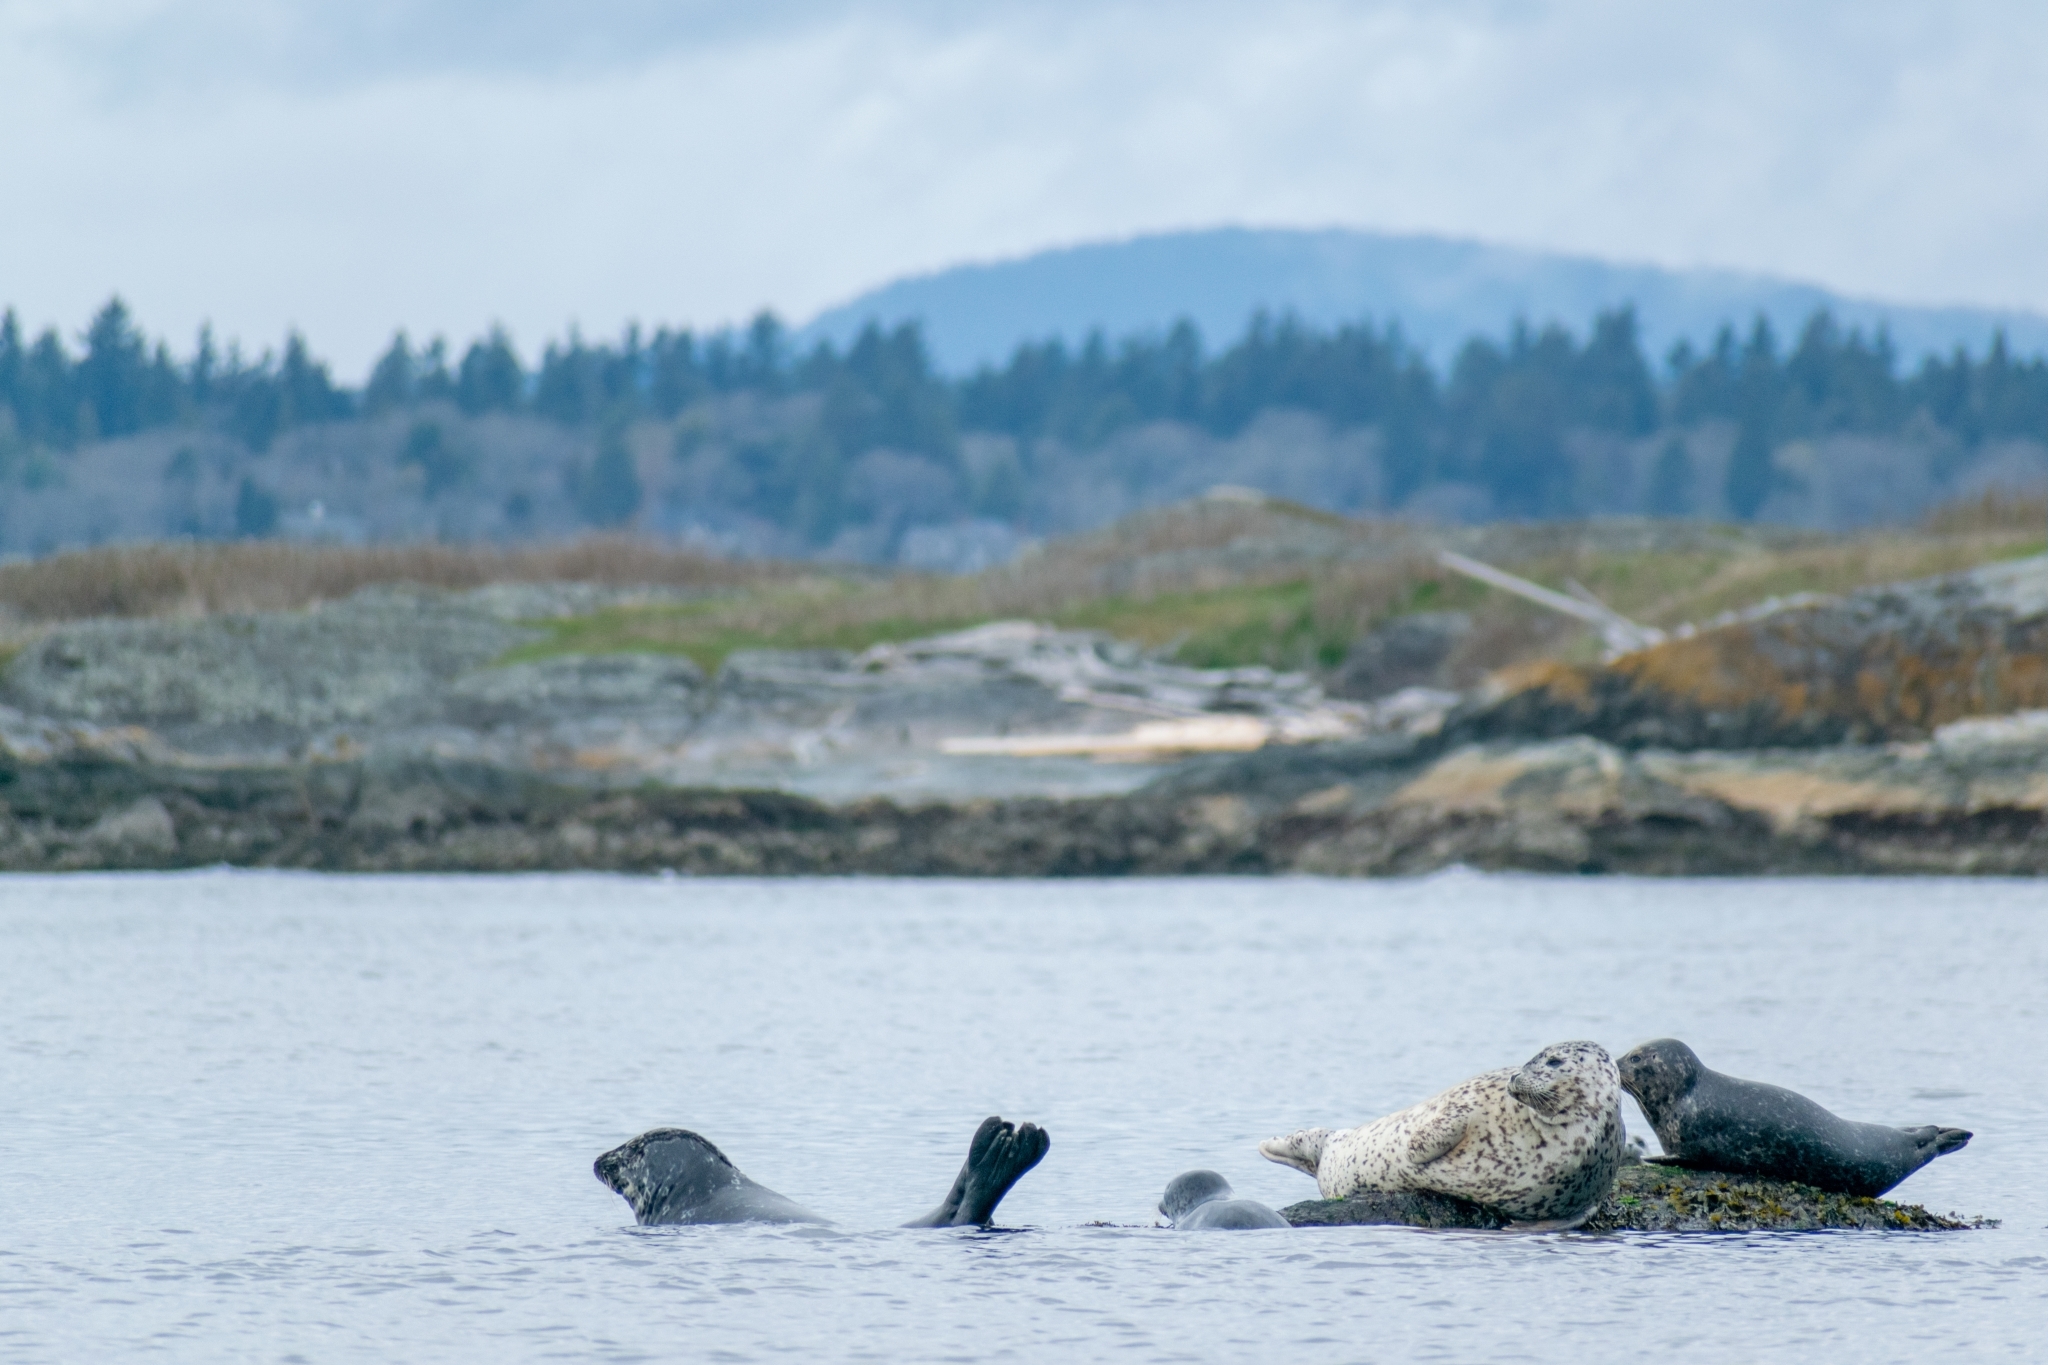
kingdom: Animalia
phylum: Chordata
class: Mammalia
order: Carnivora
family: Phocidae
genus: Phoca
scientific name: Phoca vitulina
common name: Harbor seal
